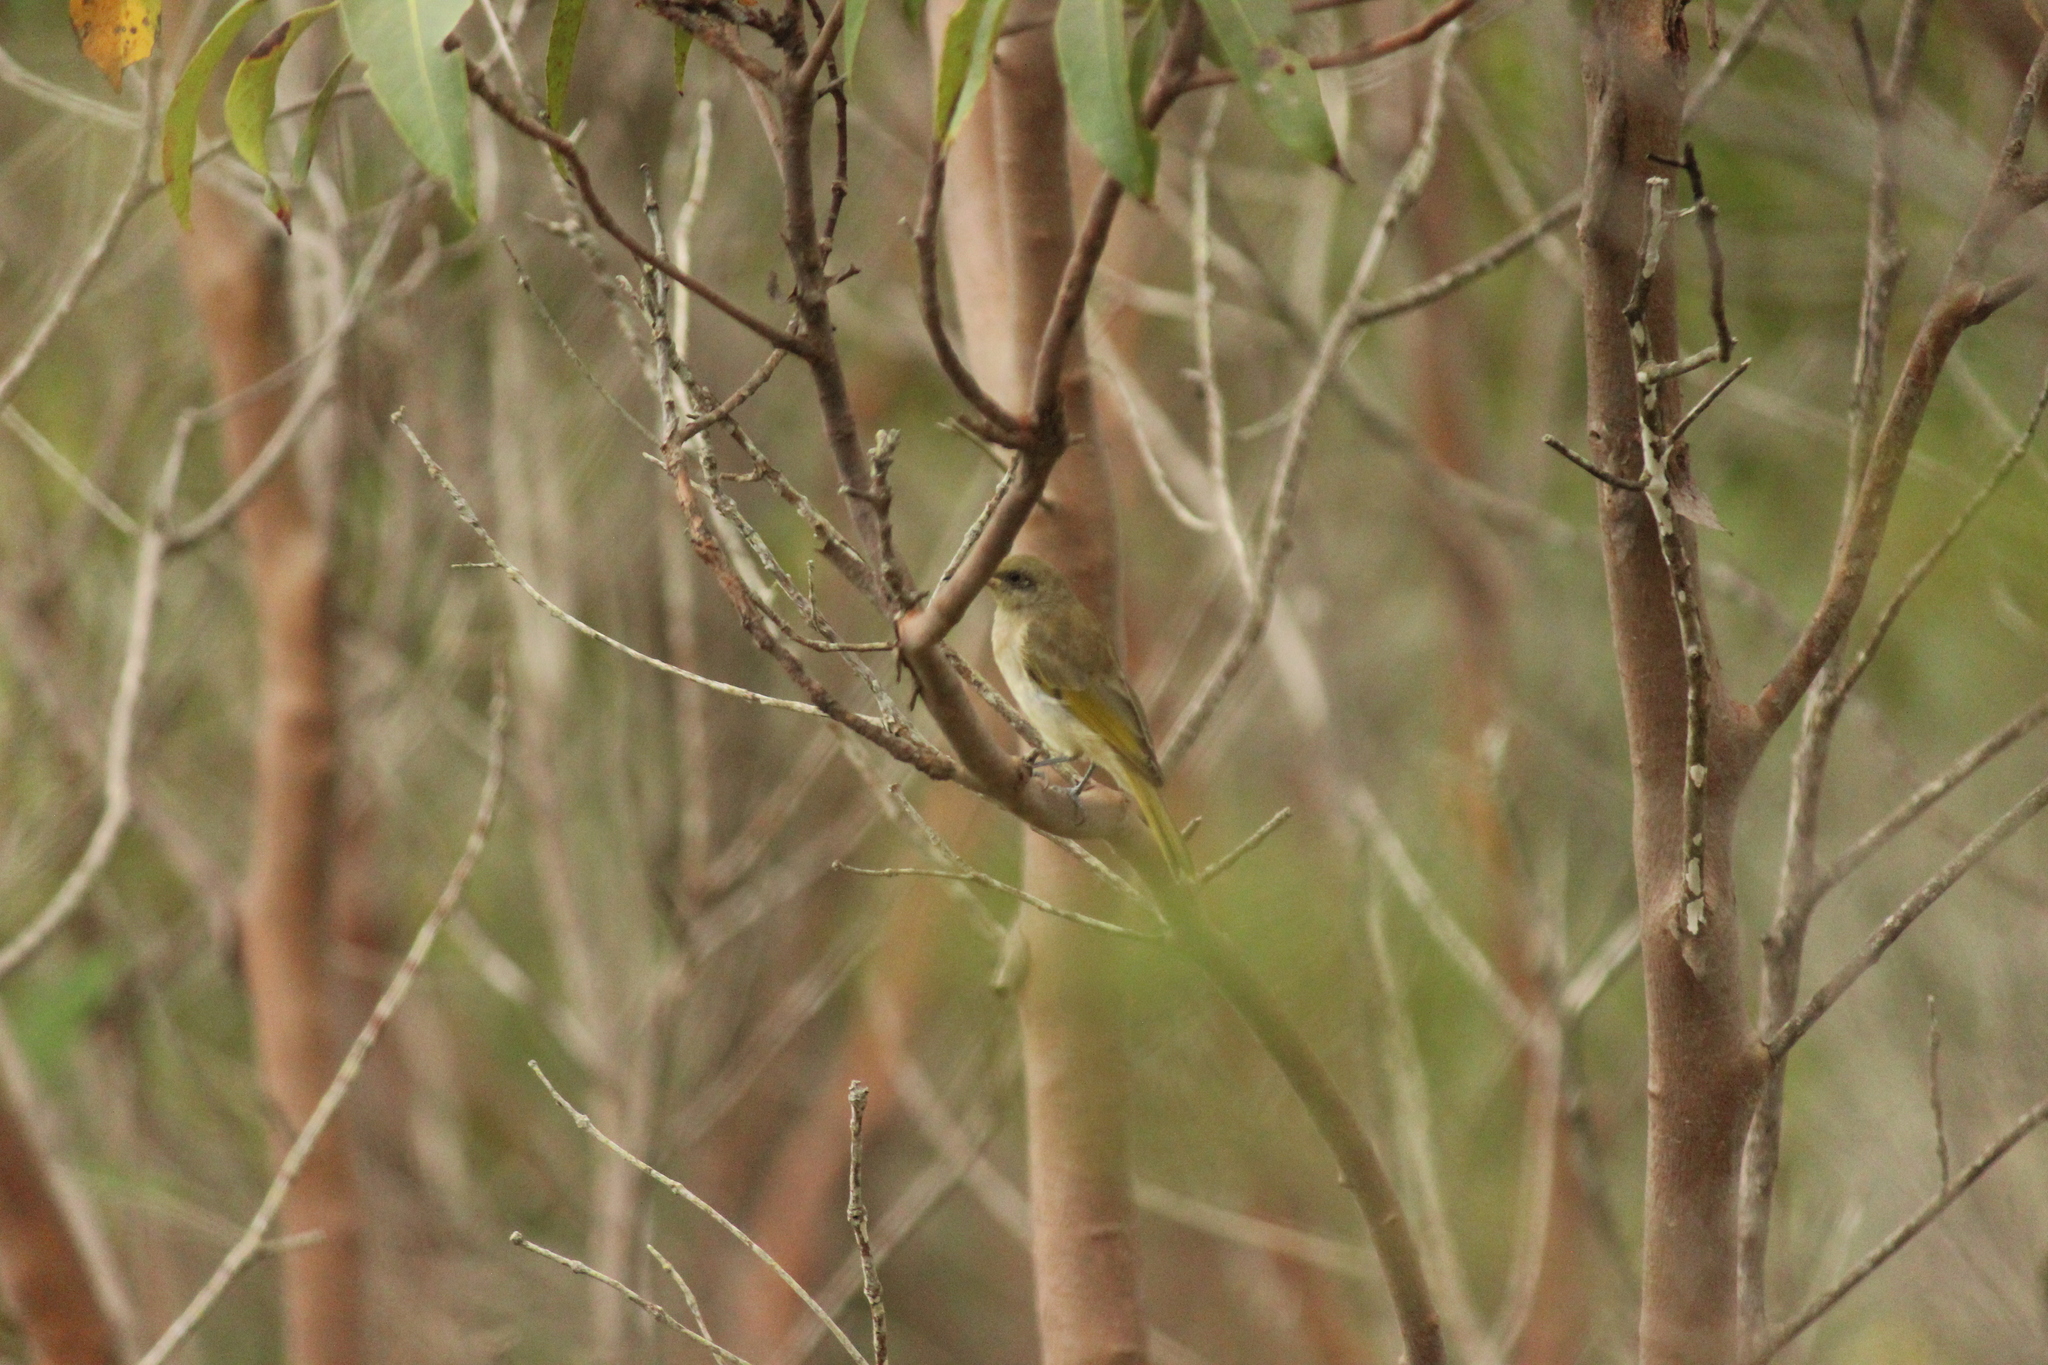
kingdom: Animalia
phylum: Chordata
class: Aves
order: Passeriformes
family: Meliphagidae
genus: Lichmera
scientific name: Lichmera indistincta
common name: Brown honeyeater
